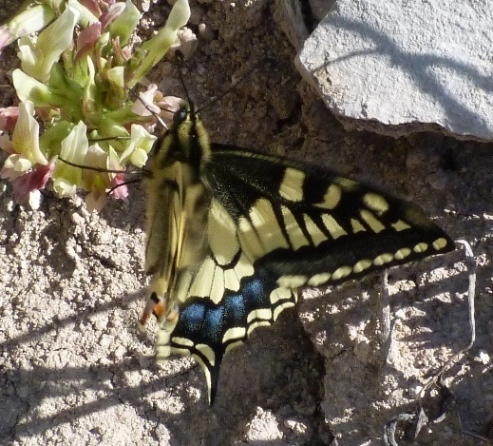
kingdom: Animalia
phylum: Arthropoda
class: Insecta
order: Lepidoptera
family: Papilionidae
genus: Papilio
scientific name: Papilio machaon
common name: Swallowtail
